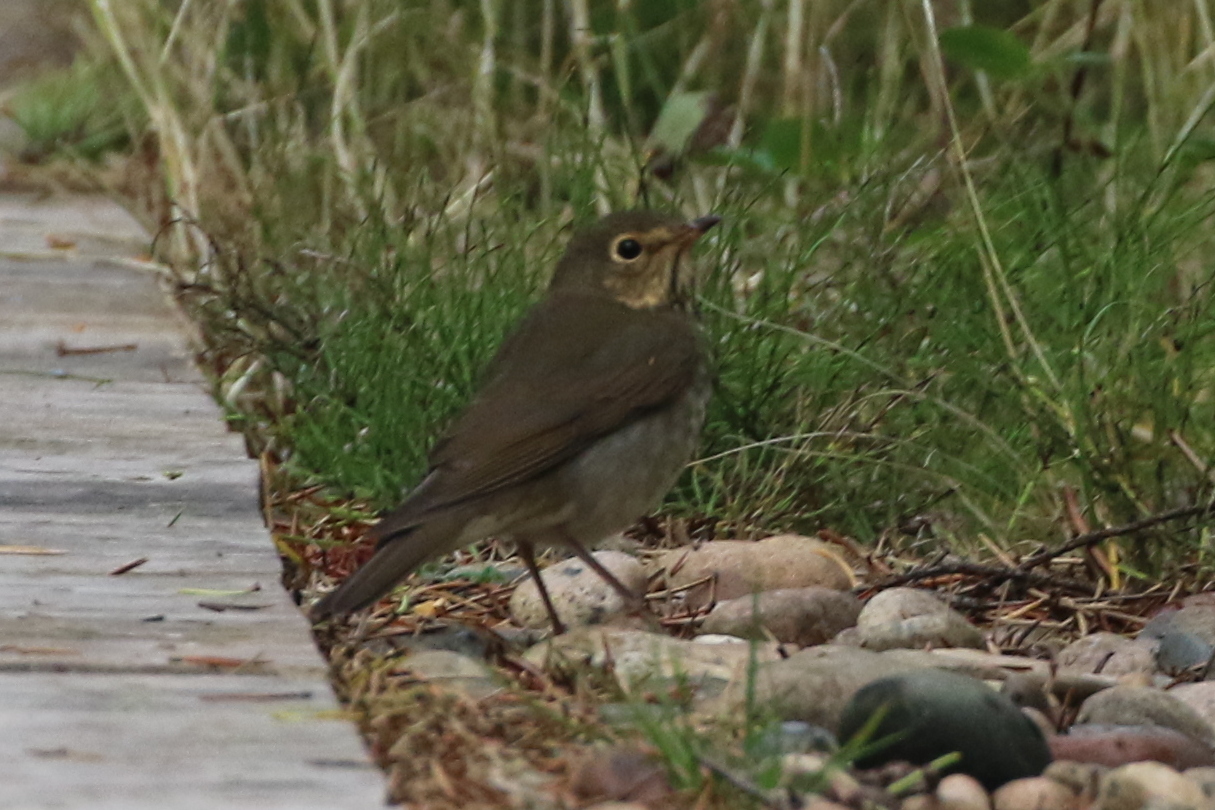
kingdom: Animalia
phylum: Chordata
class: Aves
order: Passeriformes
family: Turdidae
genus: Catharus
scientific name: Catharus ustulatus
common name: Swainson's thrush
